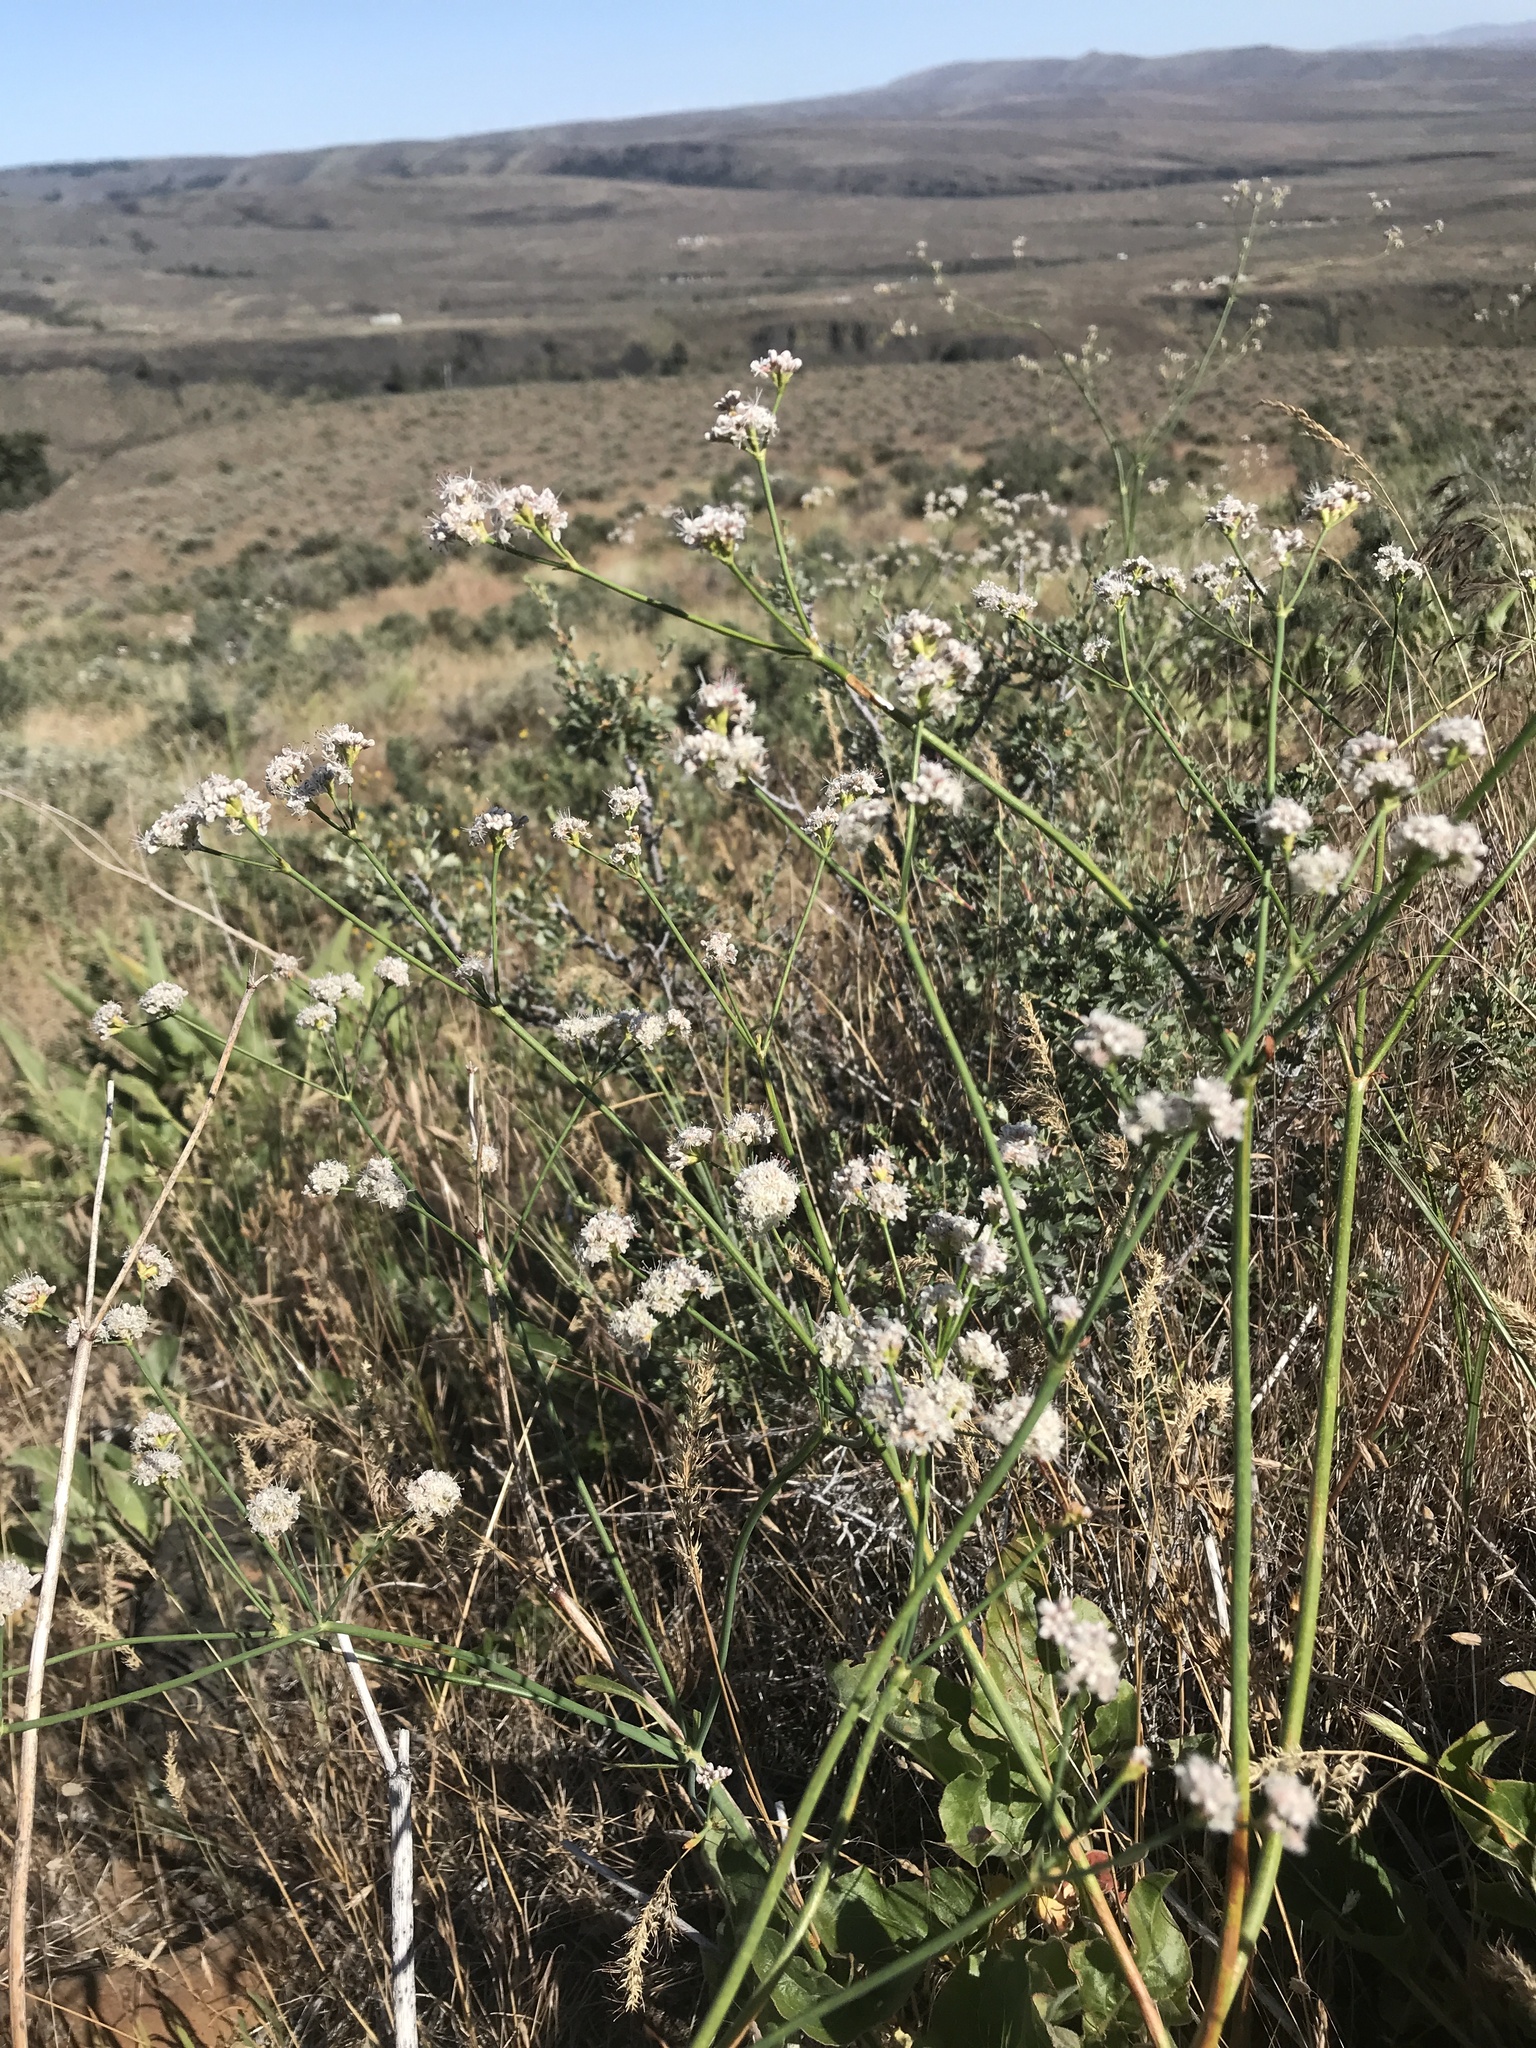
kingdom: Plantae
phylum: Tracheophyta
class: Magnoliopsida
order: Caryophyllales
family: Polygonaceae
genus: Eriogonum
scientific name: Eriogonum elatum
